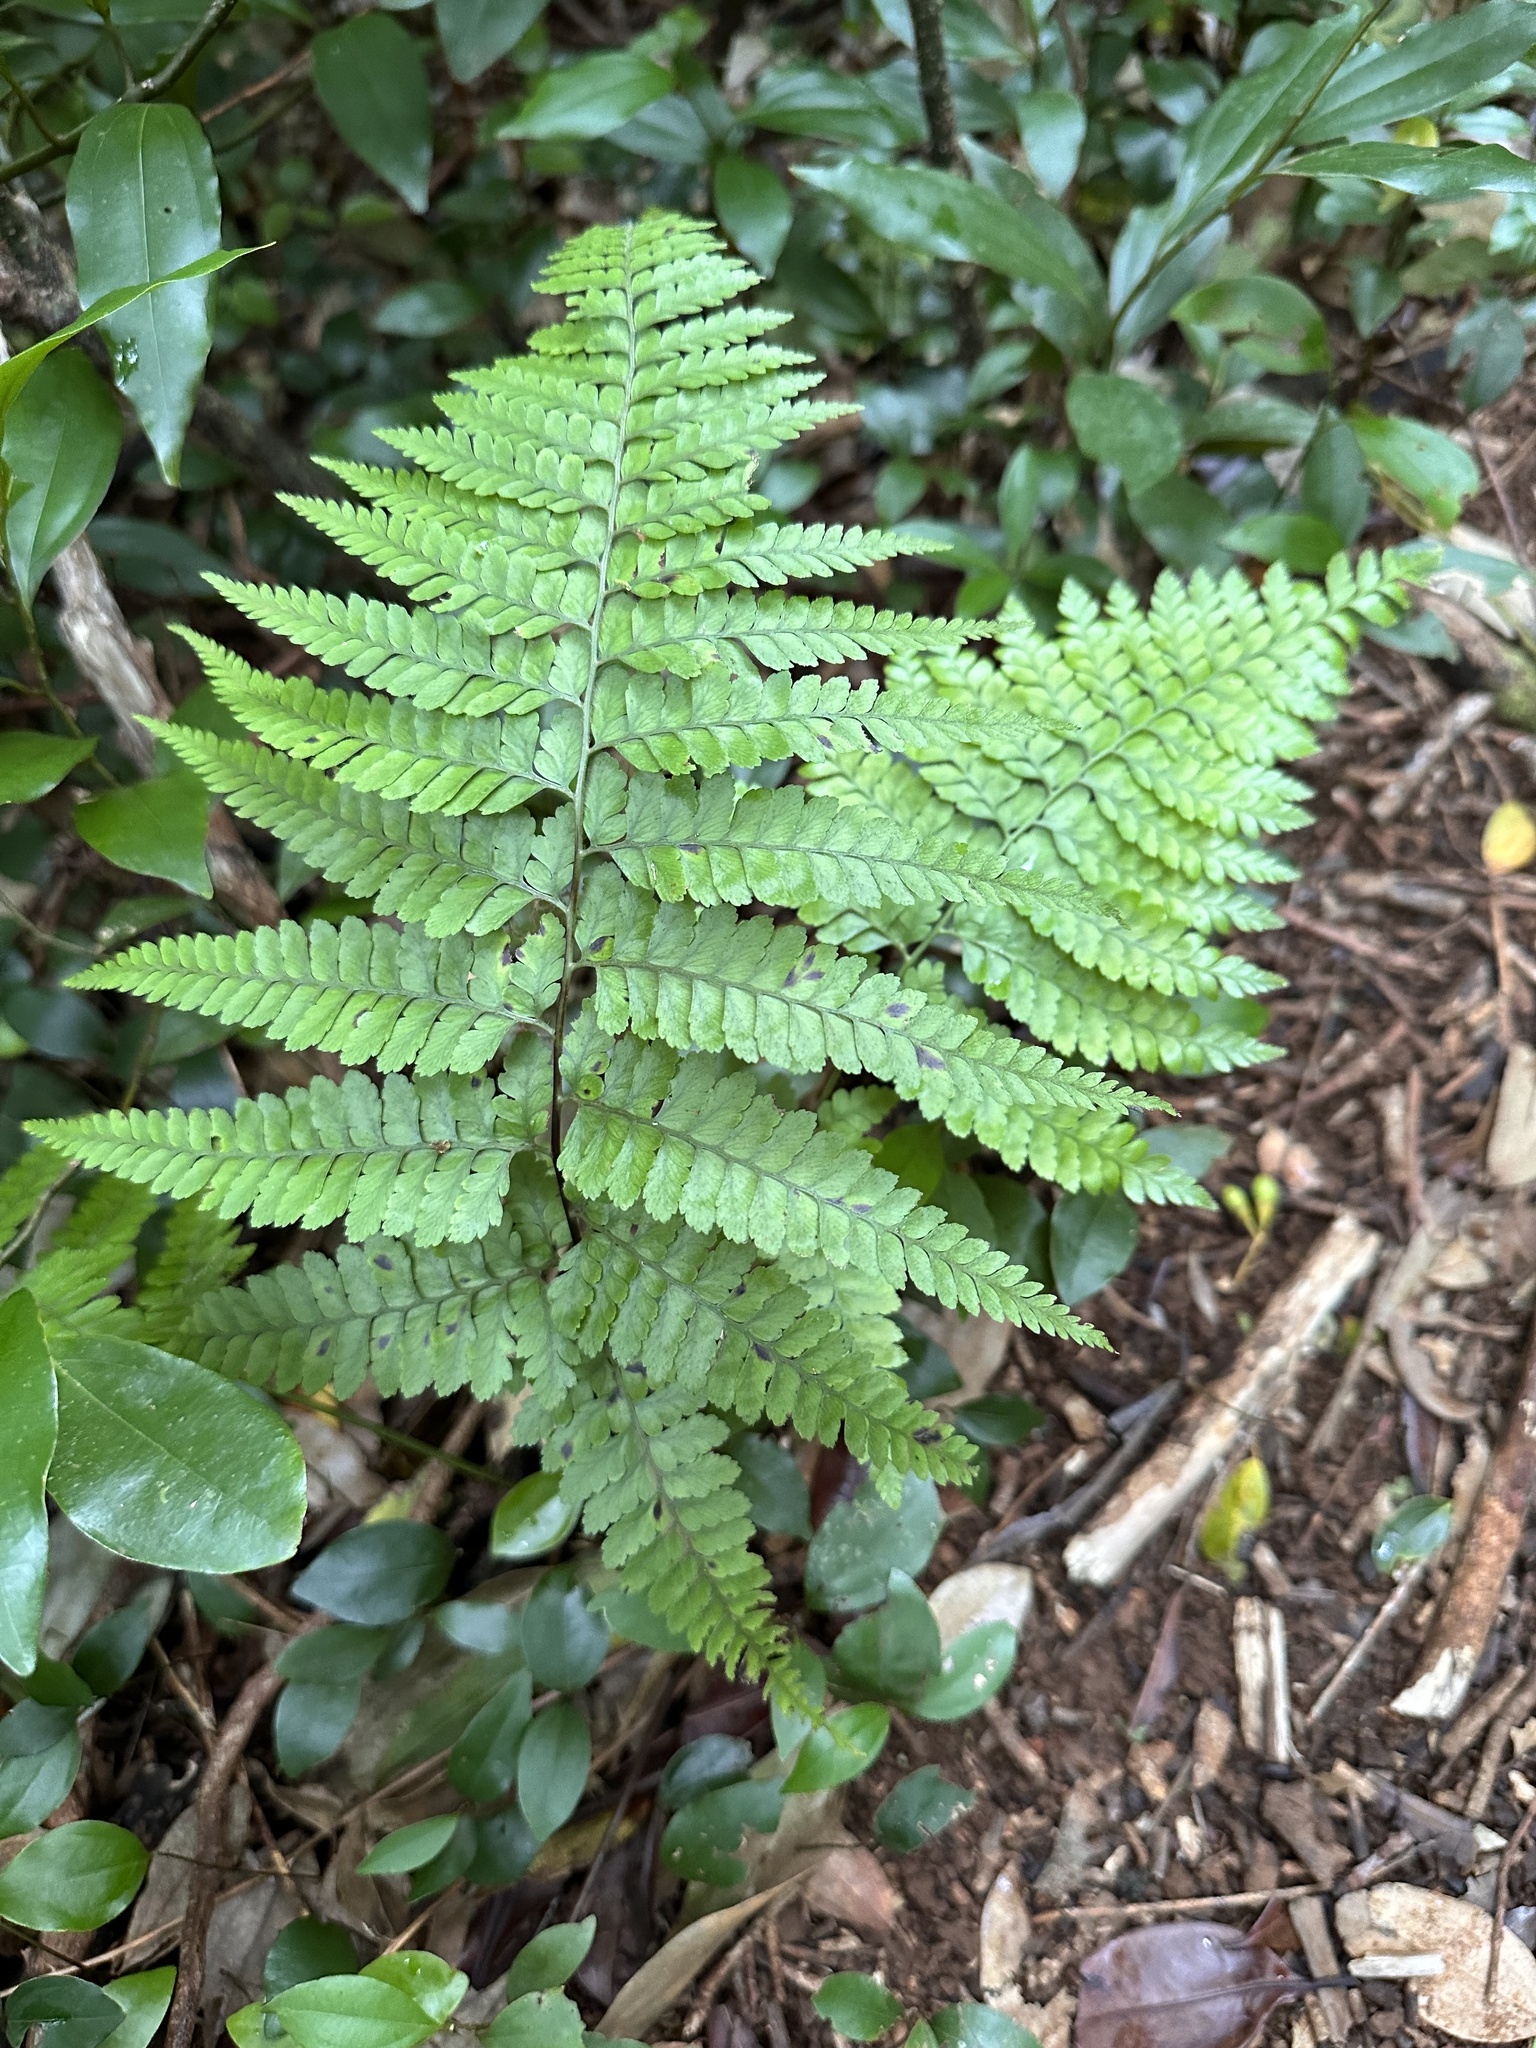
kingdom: Plantae
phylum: Tracheophyta
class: Polypodiopsida
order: Polypodiales
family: Dennstaedtiaceae
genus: Microlepia
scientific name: Microlepia setosa
